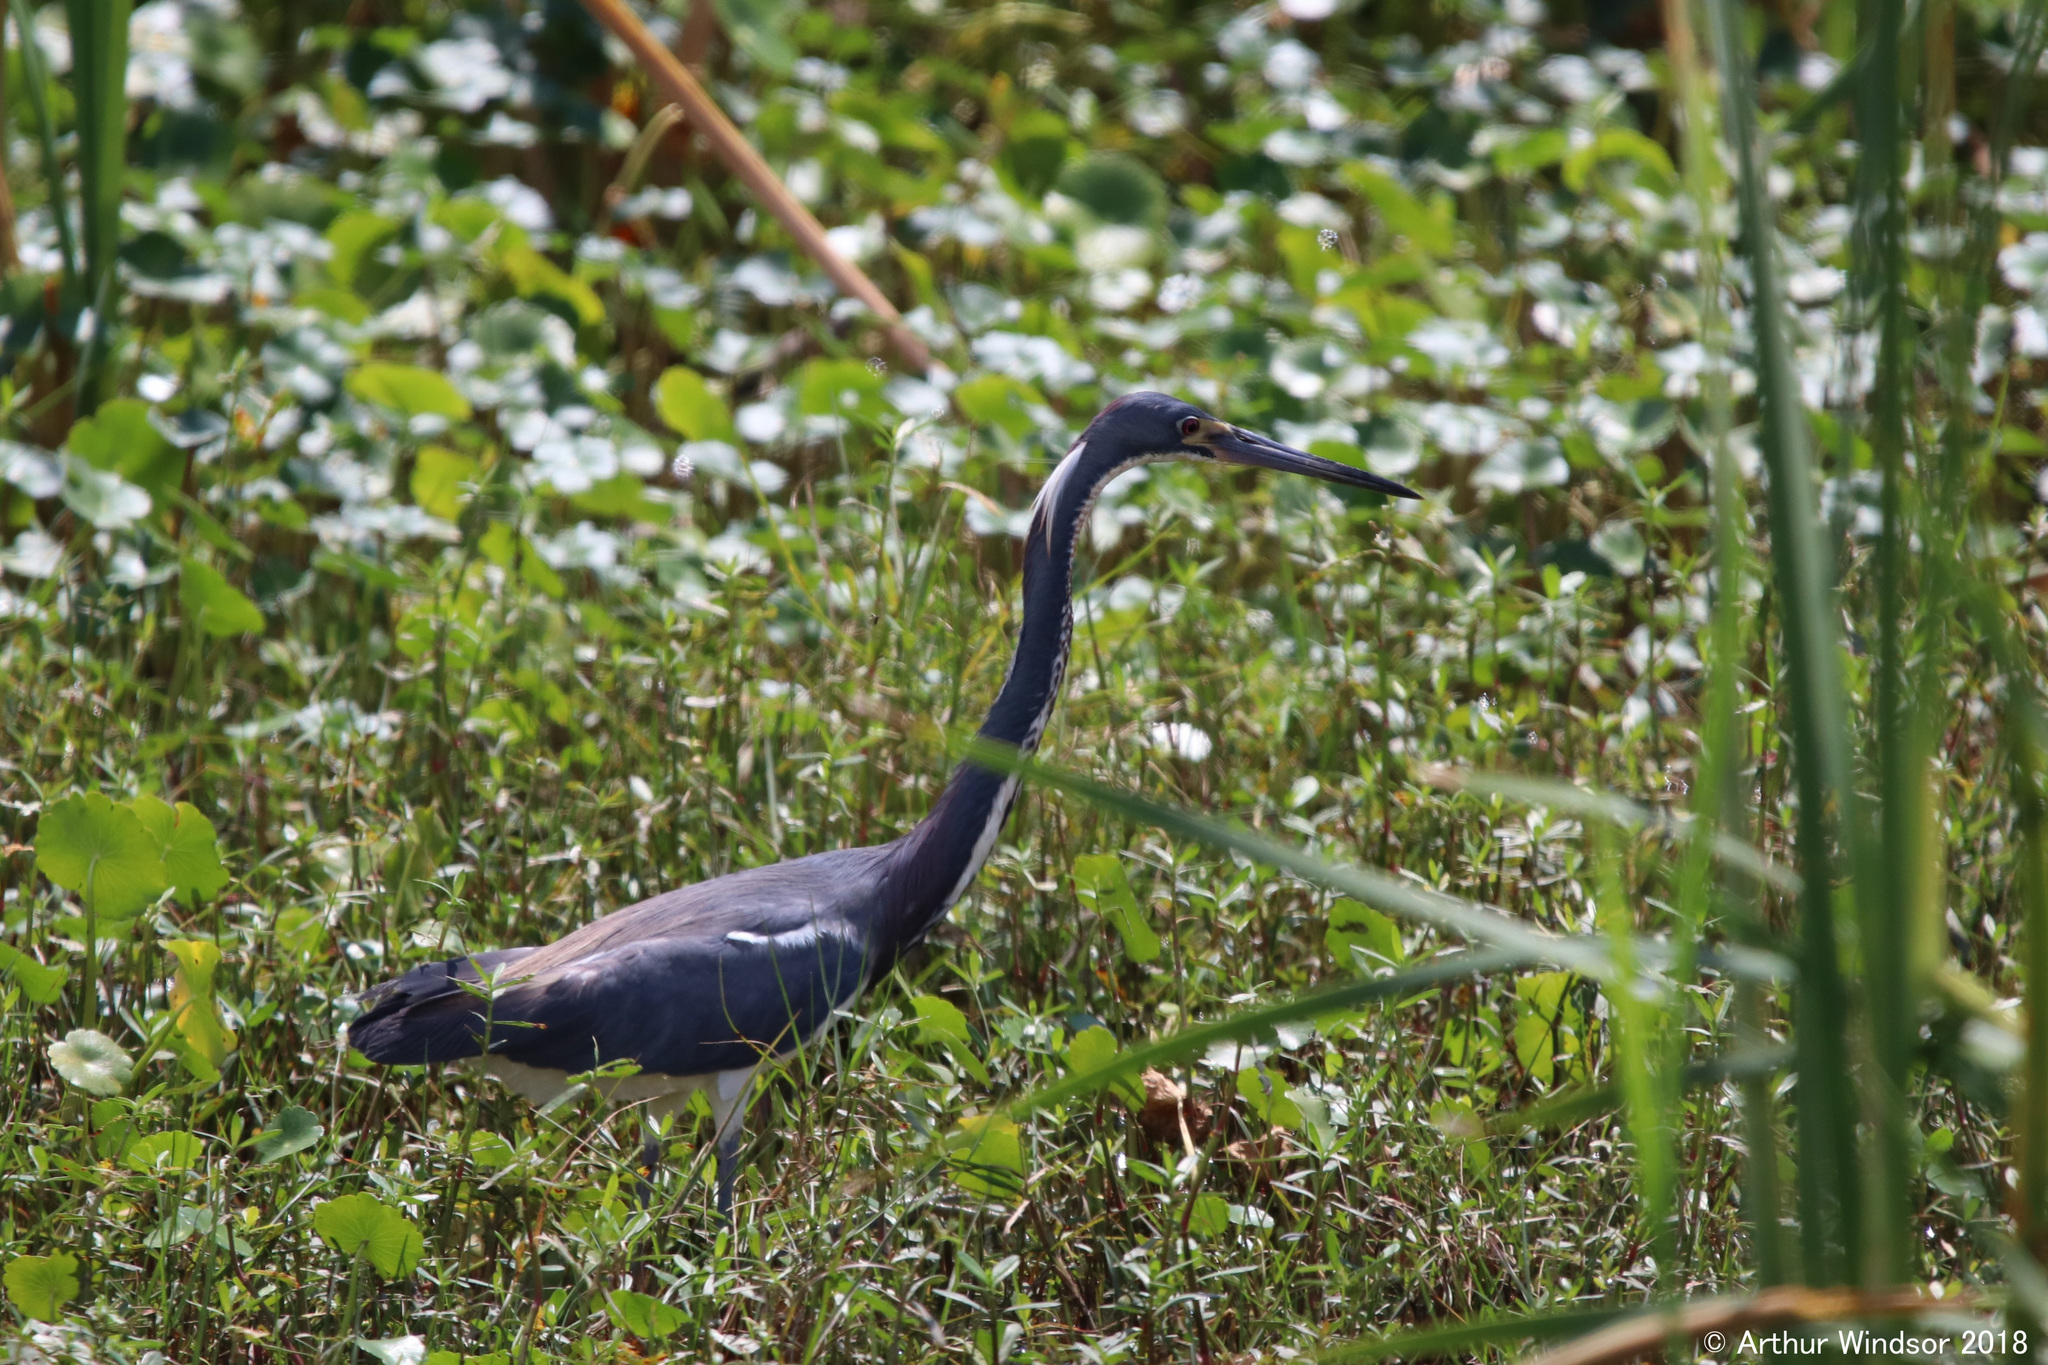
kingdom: Animalia
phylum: Chordata
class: Aves
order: Pelecaniformes
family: Ardeidae
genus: Egretta
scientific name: Egretta tricolor
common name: Tricolored heron
